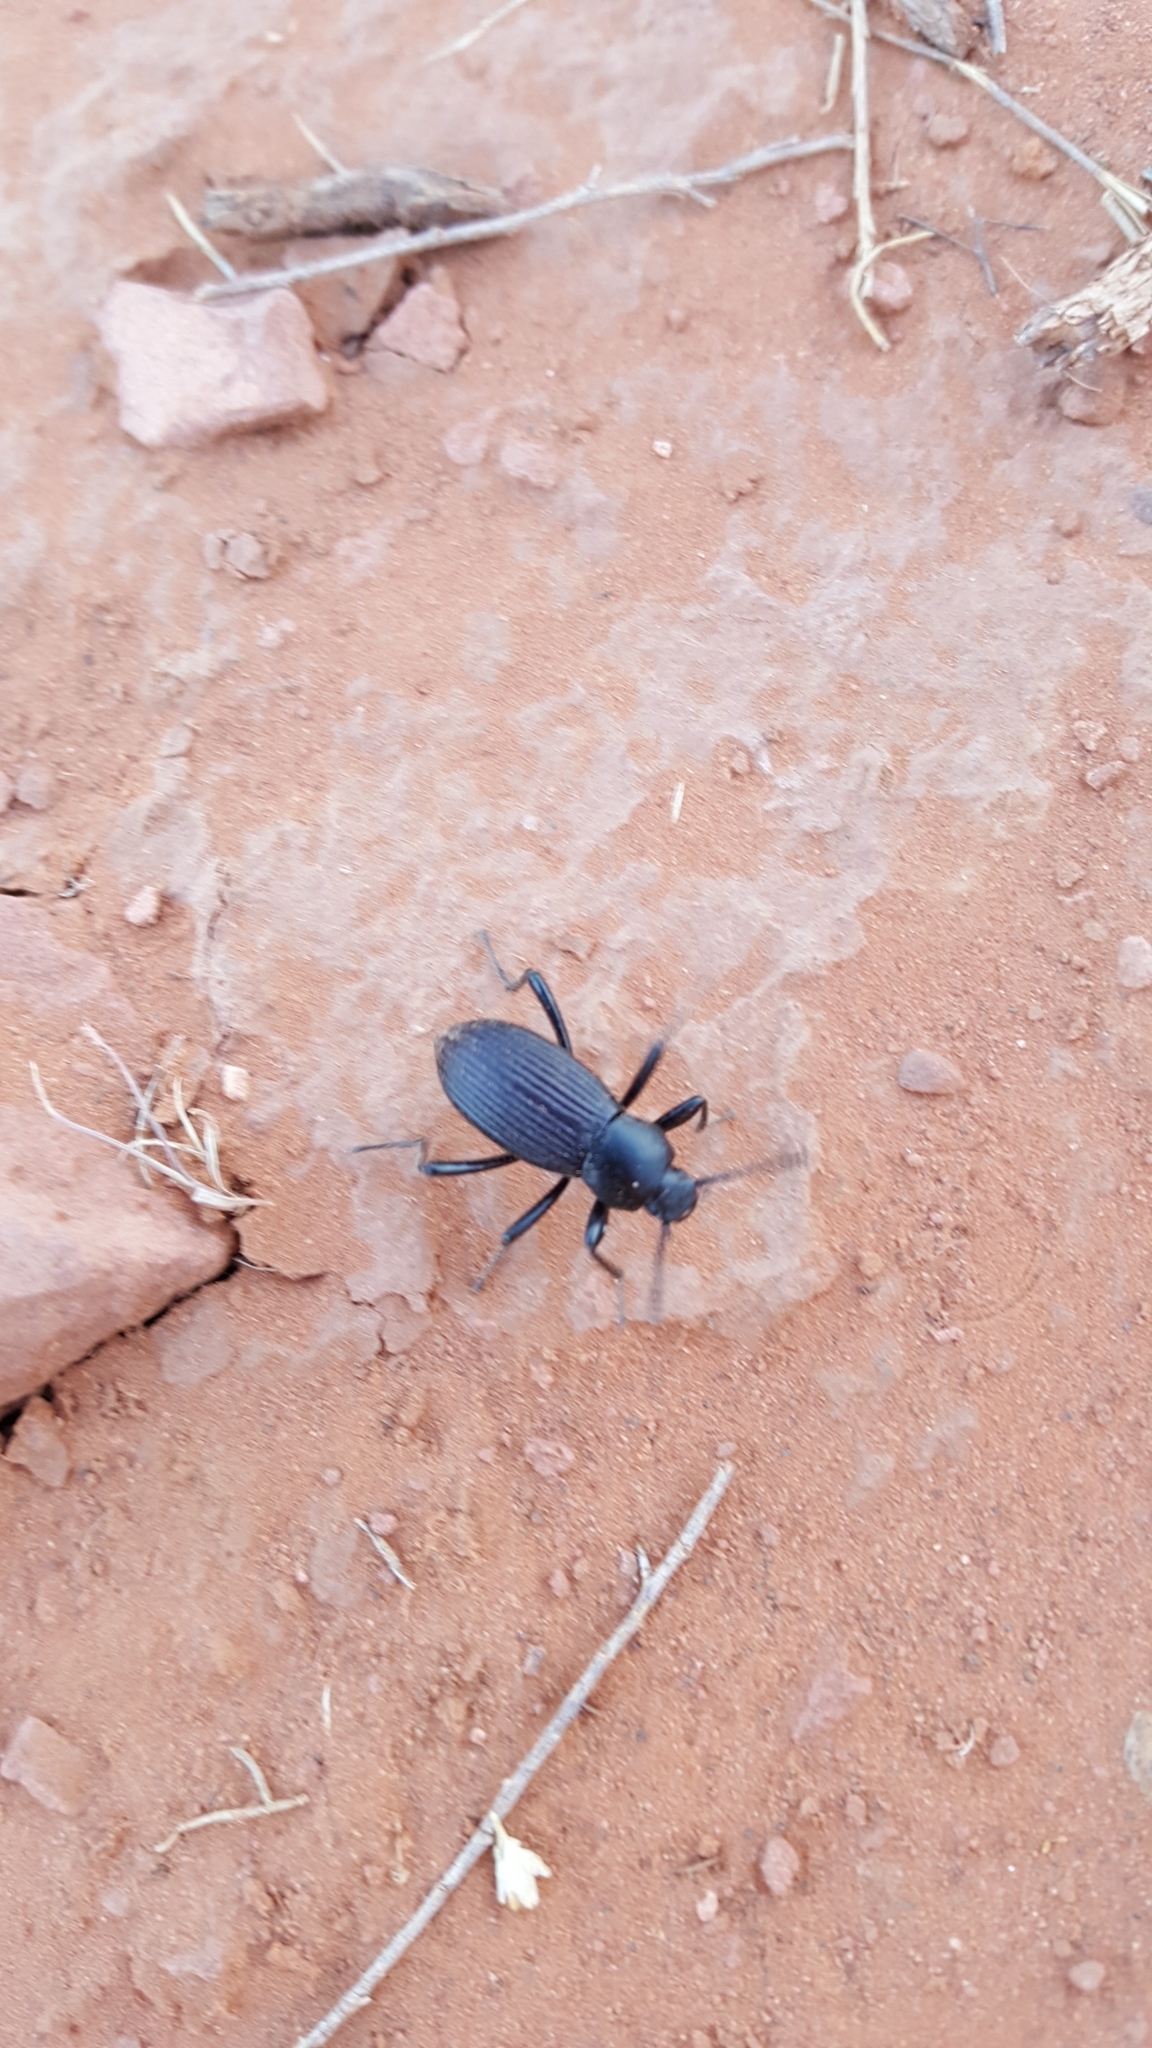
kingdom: Animalia
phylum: Arthropoda
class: Insecta
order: Coleoptera
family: Tenebrionidae
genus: Eleodes
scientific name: Eleodes carbonaria
